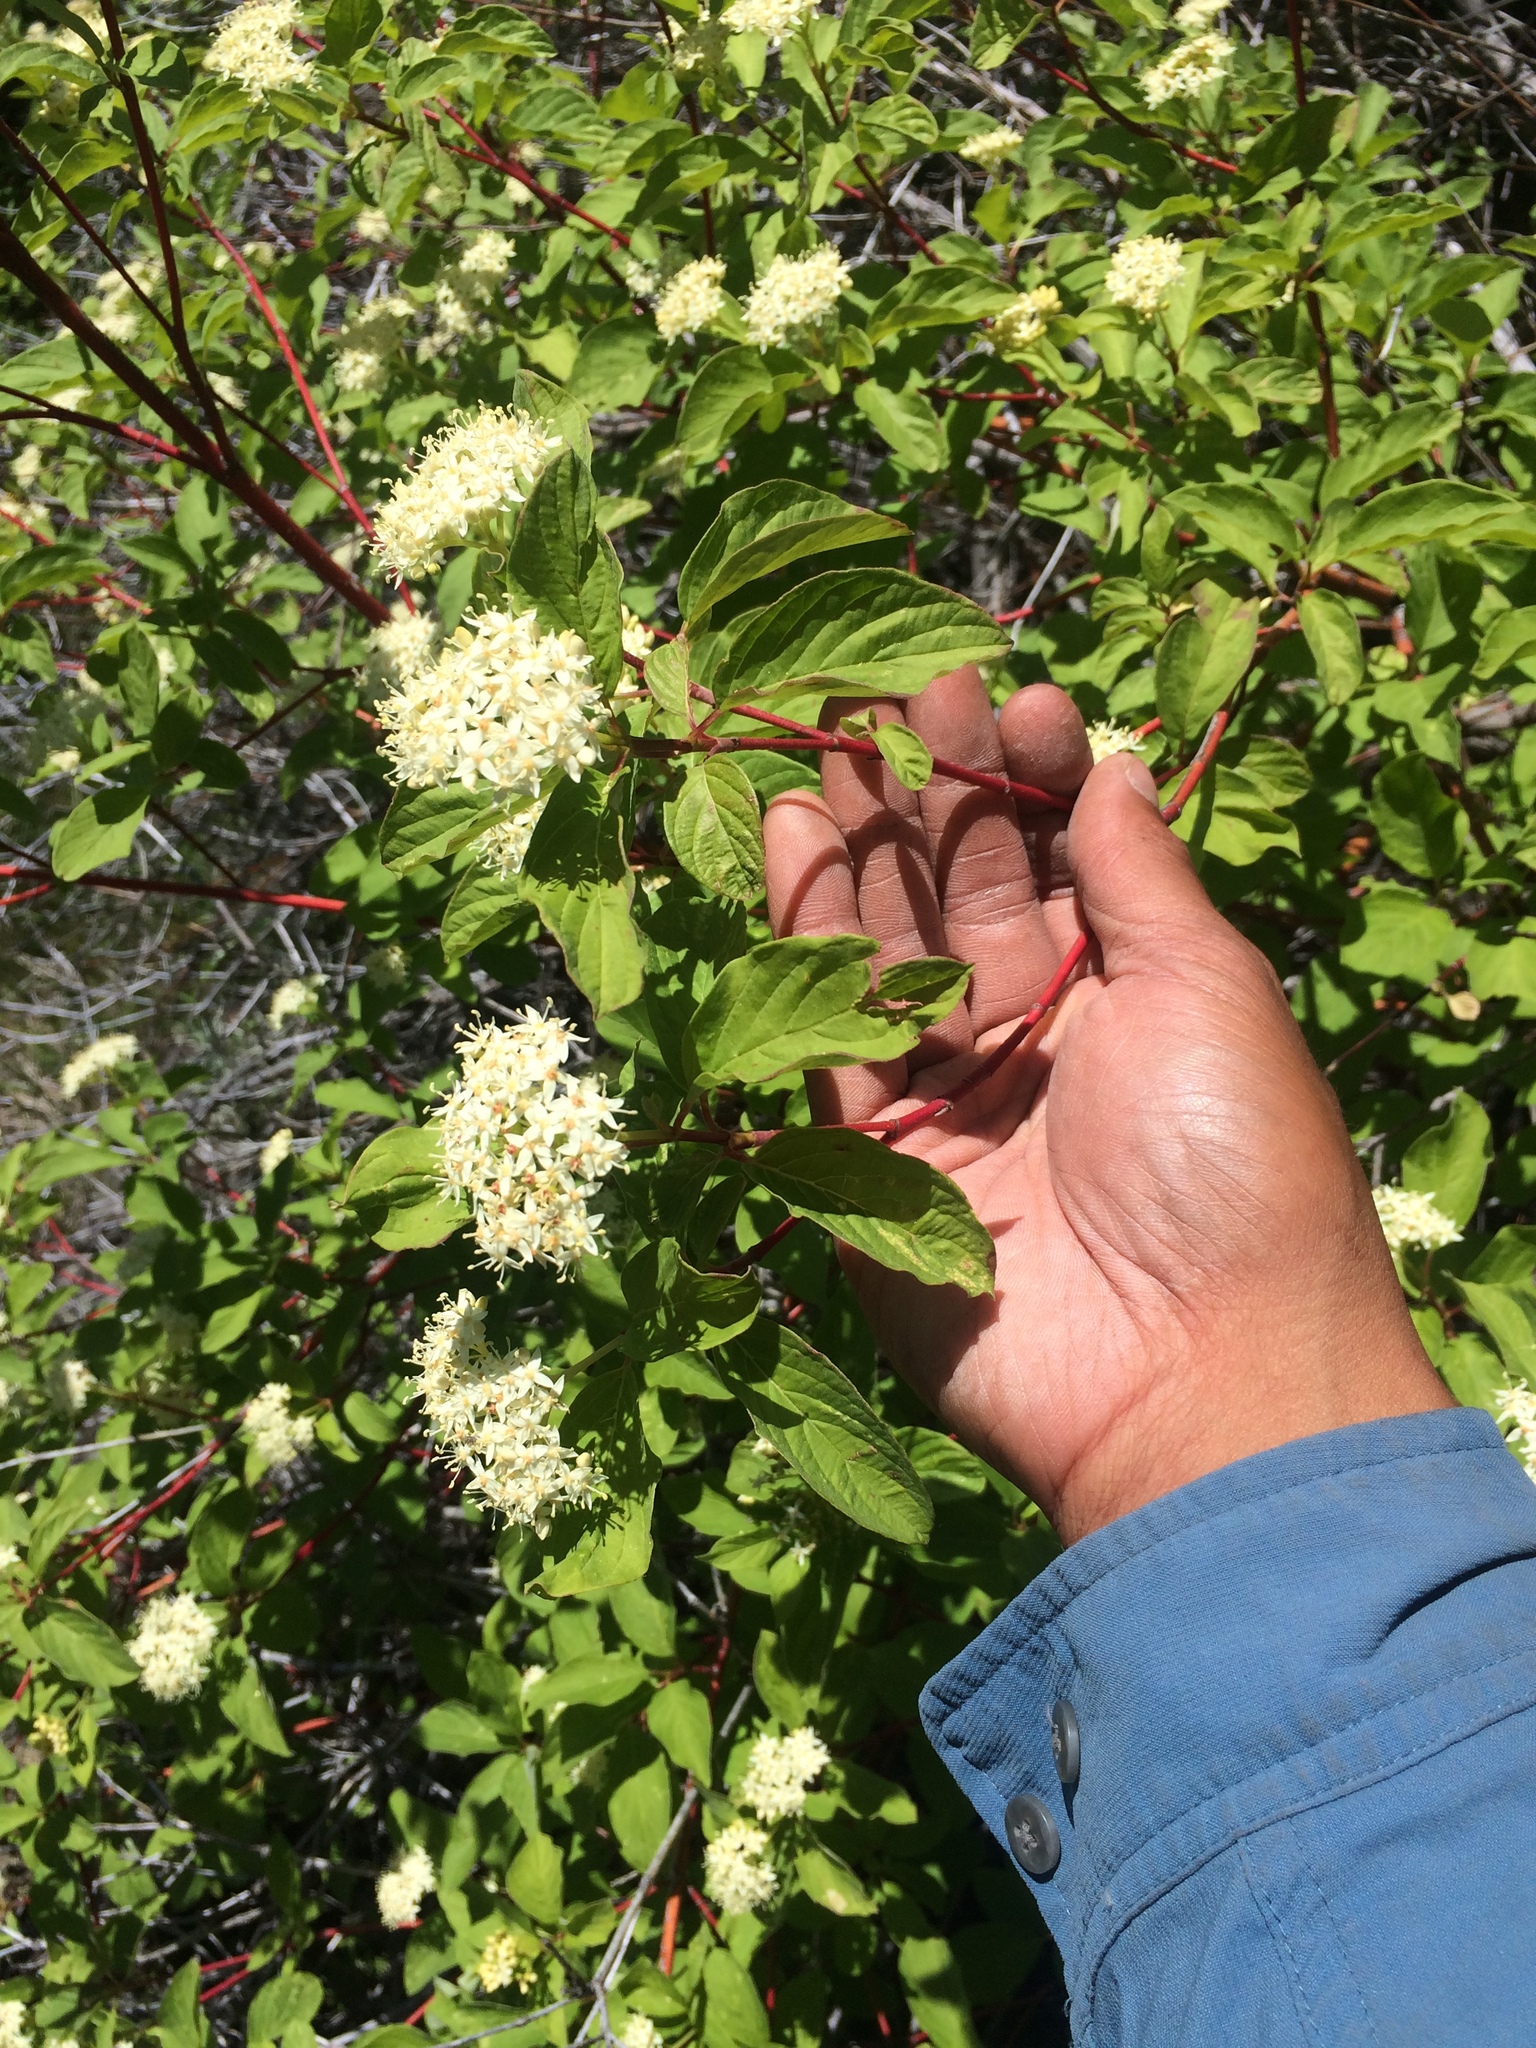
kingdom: Plantae
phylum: Tracheophyta
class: Magnoliopsida
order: Cornales
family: Cornaceae
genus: Cornus
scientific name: Cornus sericea
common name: Red-osier dogwood
